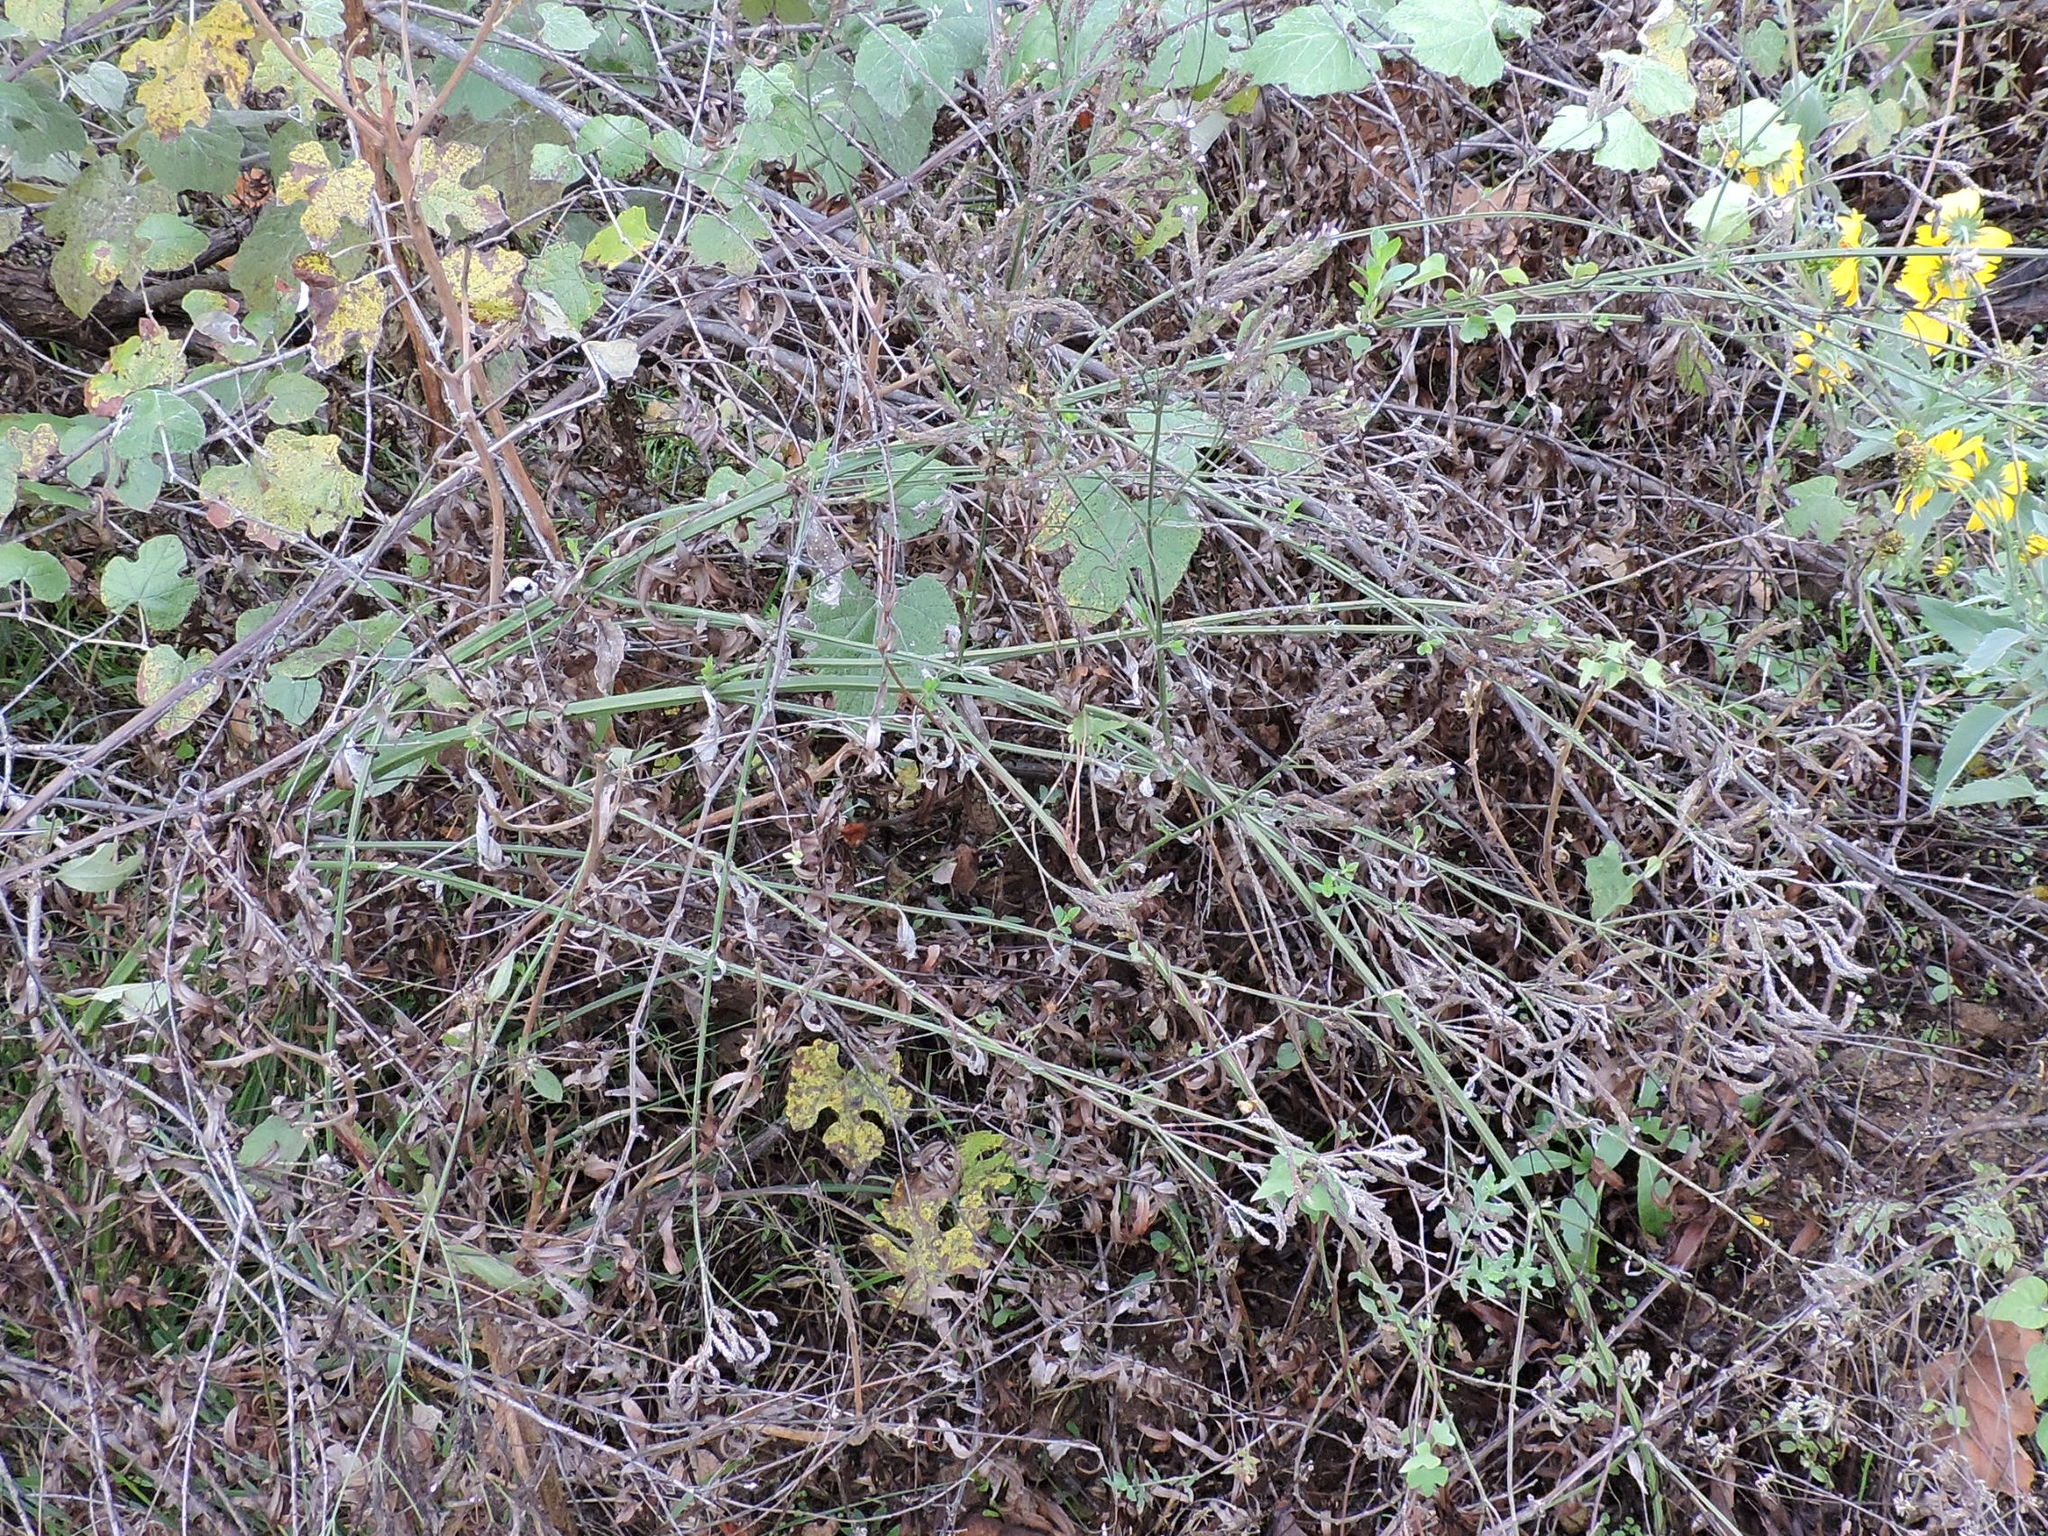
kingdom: Plantae
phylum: Tracheophyta
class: Magnoliopsida
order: Lamiales
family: Verbenaceae
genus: Verbena
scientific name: Verbena brasiliensis
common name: Brazilian vervain
